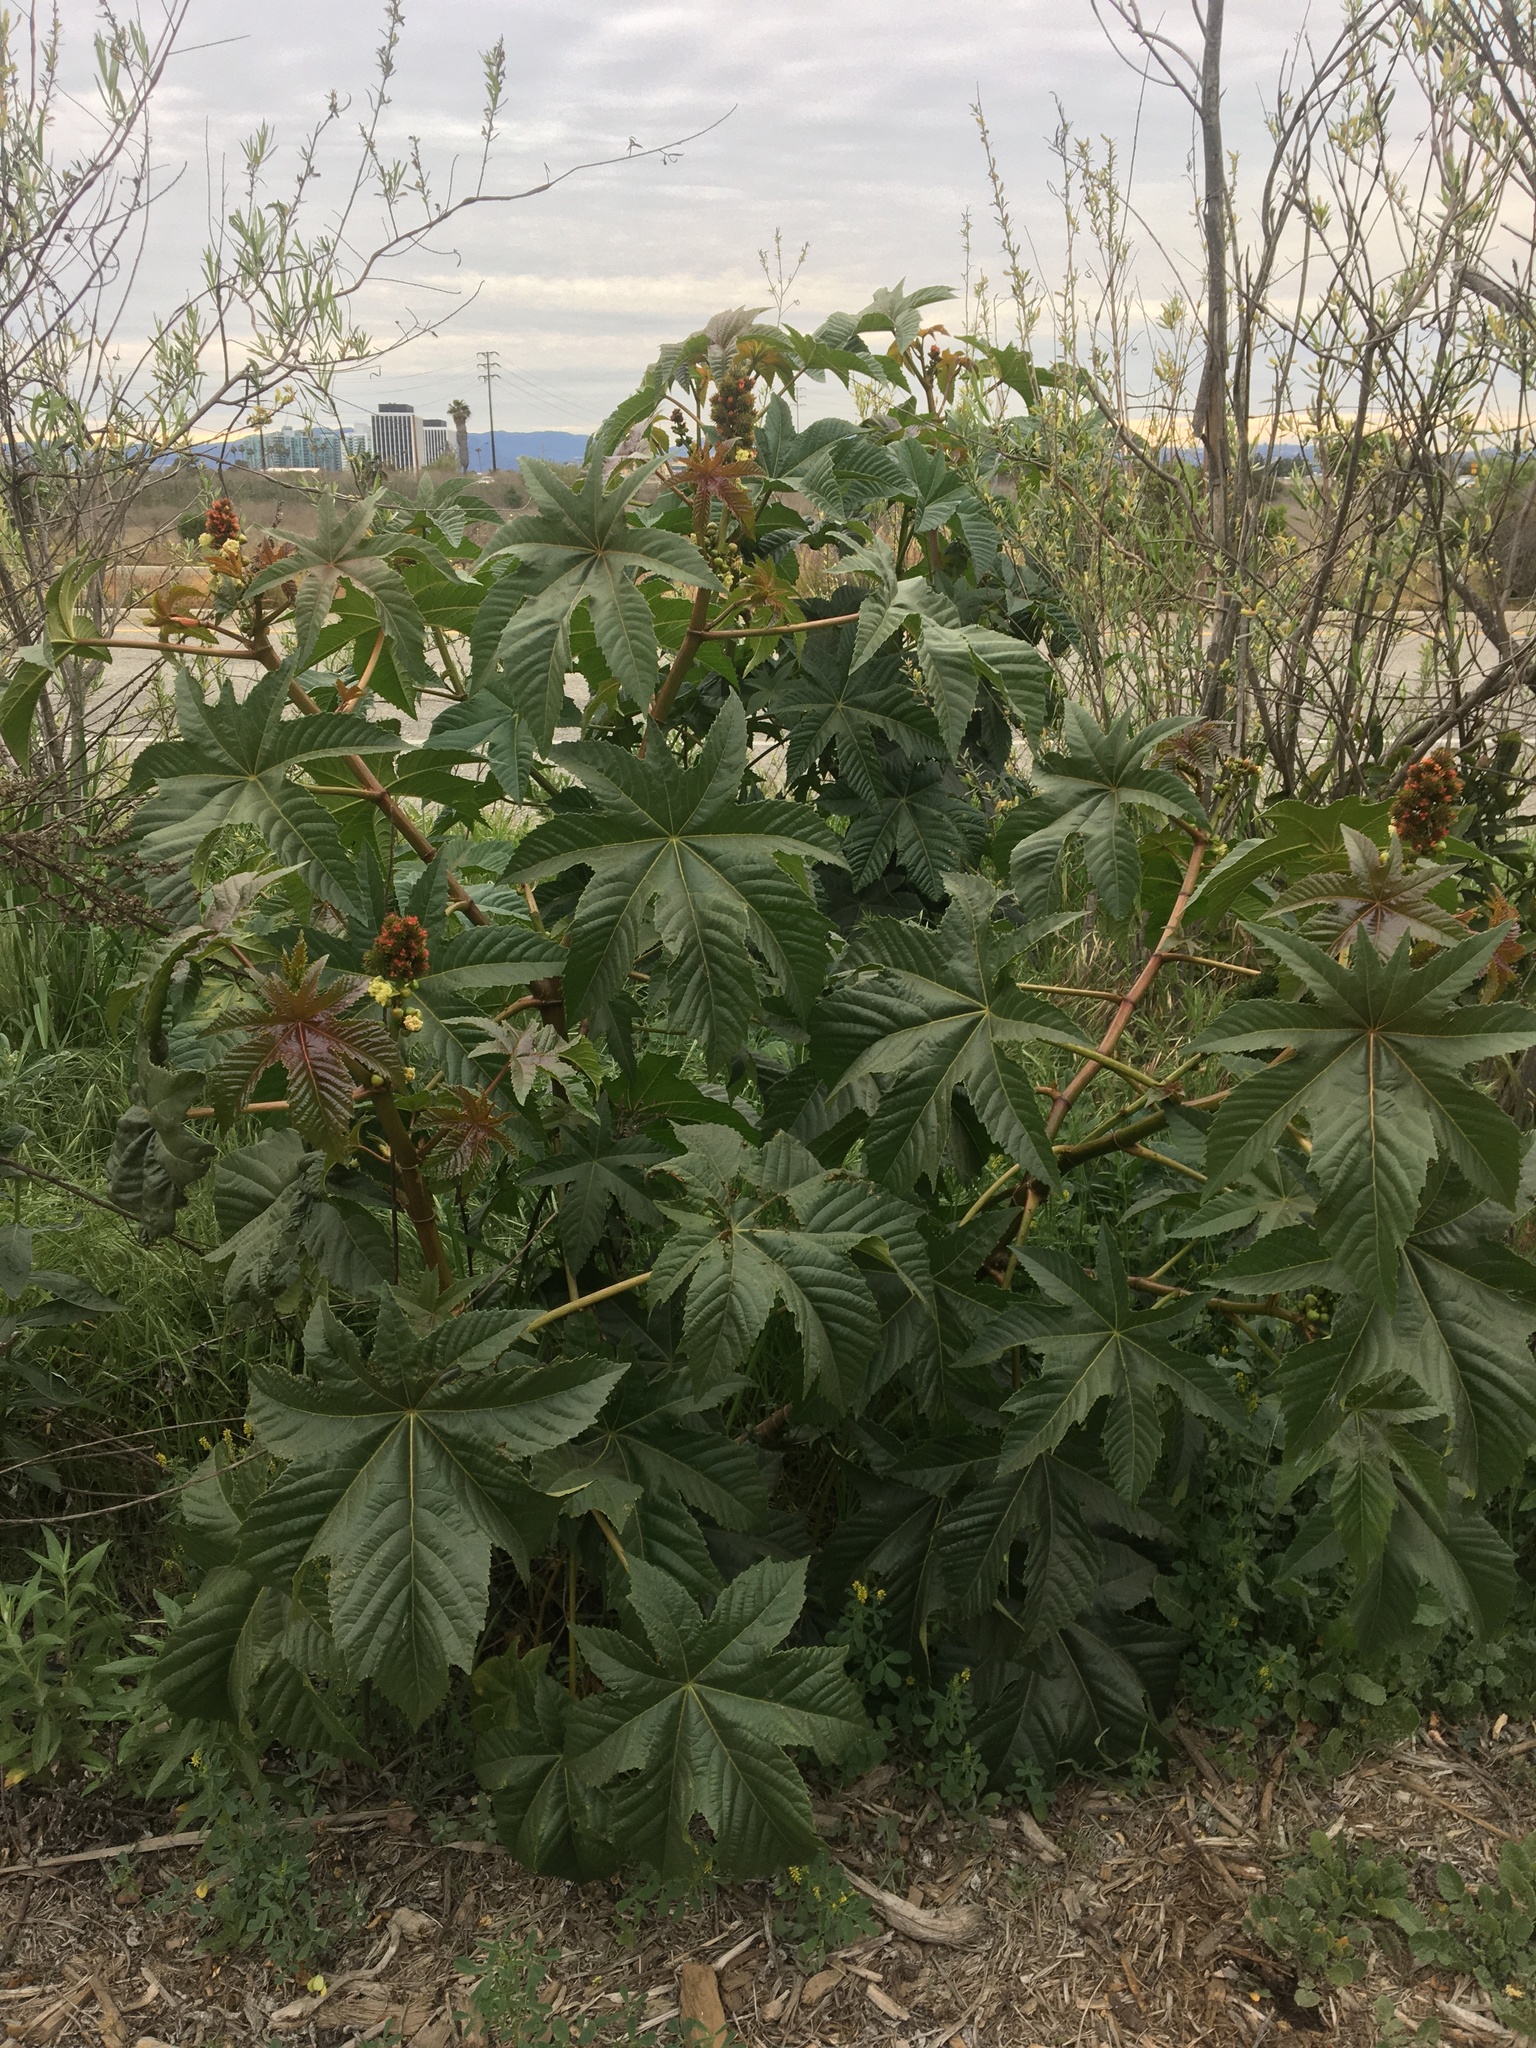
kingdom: Plantae
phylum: Tracheophyta
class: Magnoliopsida
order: Malpighiales
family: Euphorbiaceae
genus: Ricinus
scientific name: Ricinus communis
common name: Castor-oil-plant
